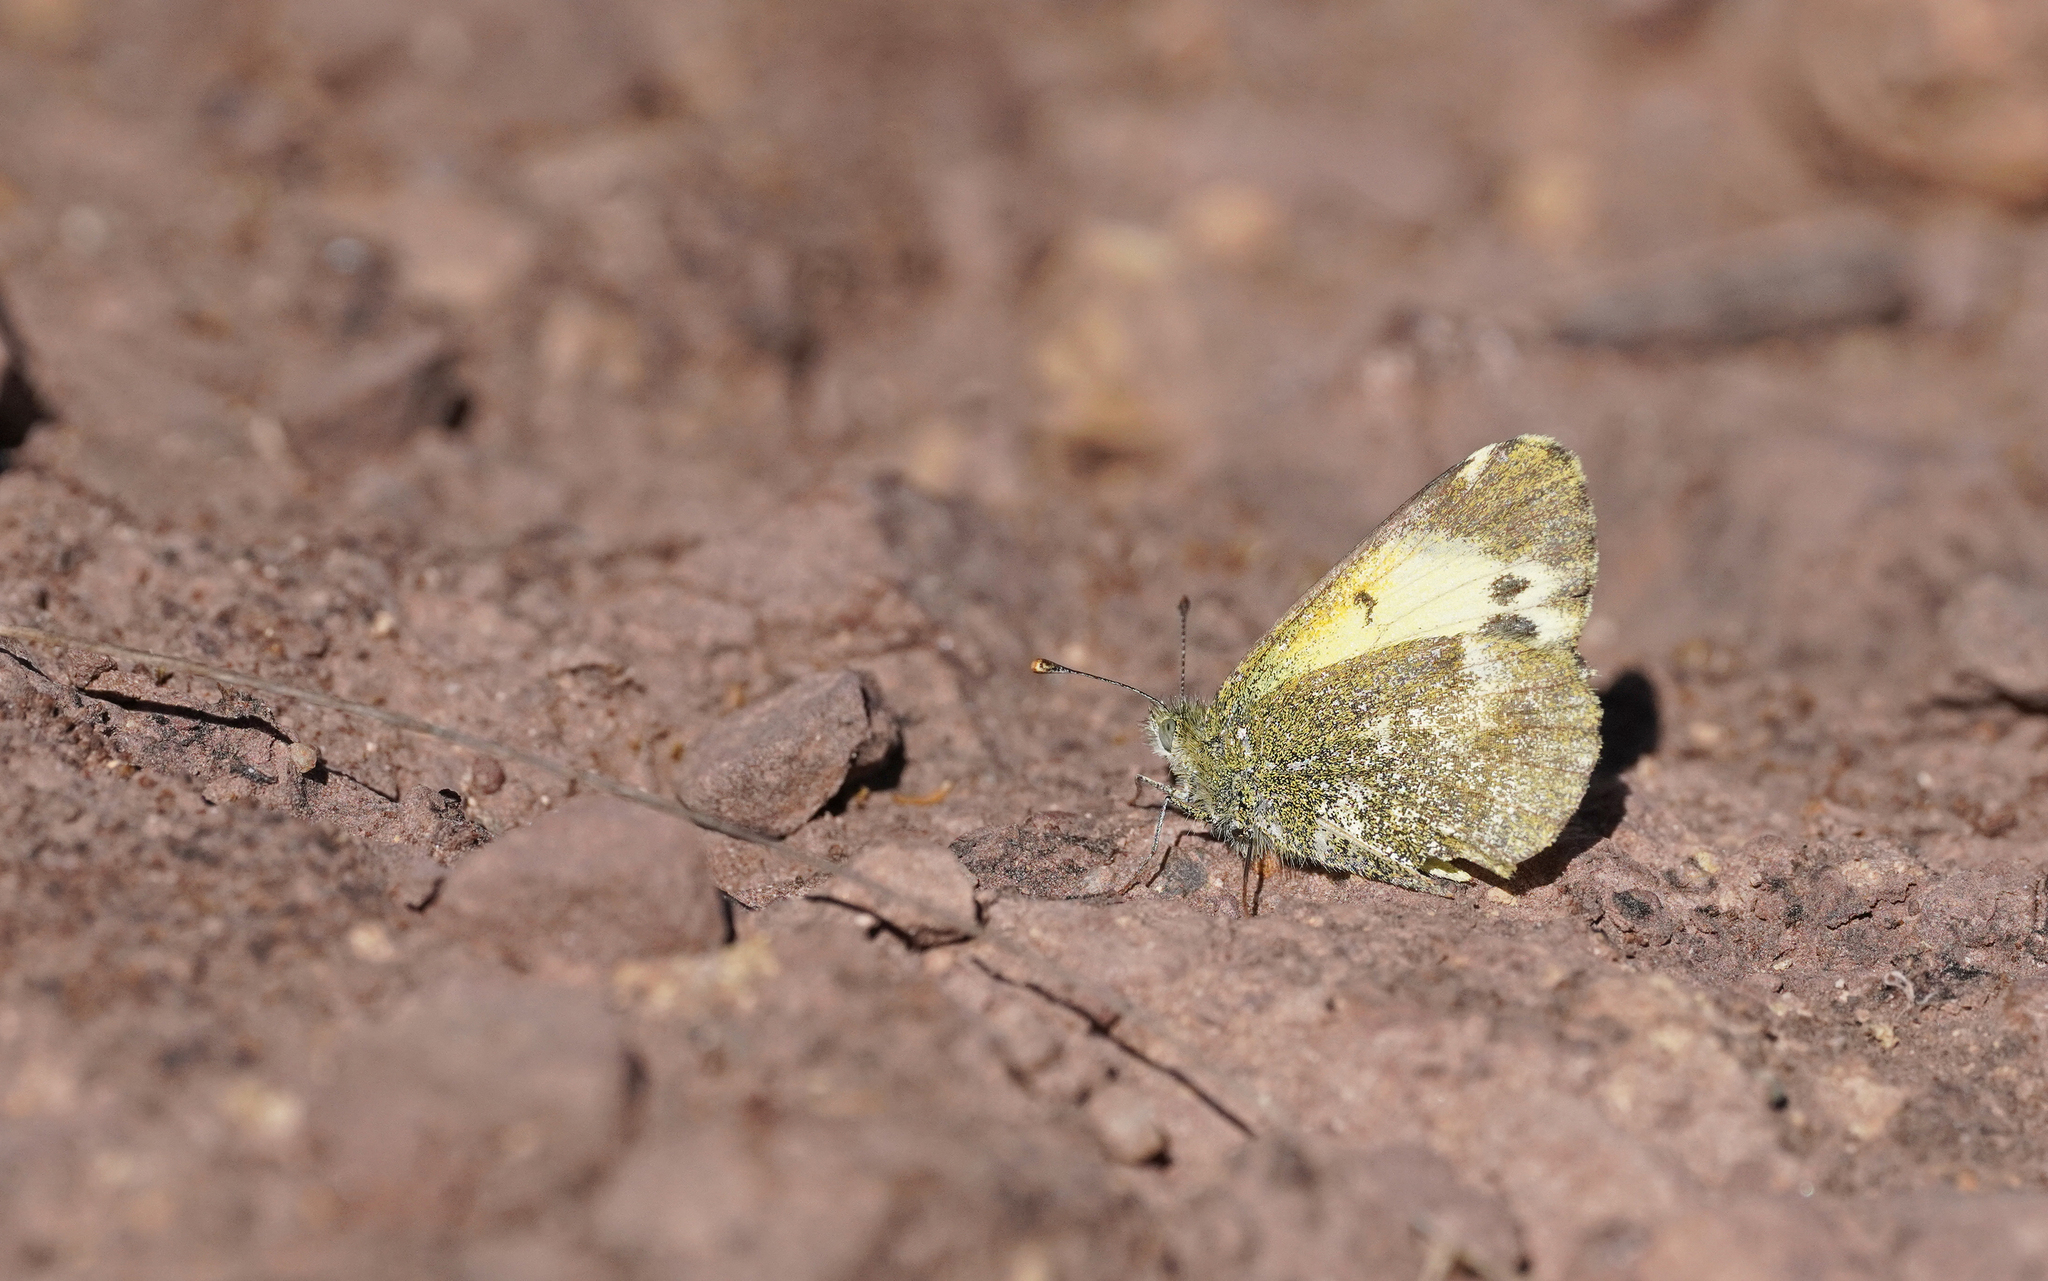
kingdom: Animalia
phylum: Arthropoda
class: Insecta
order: Lepidoptera
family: Pieridae
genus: Nathalis
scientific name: Nathalis iole
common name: Dainty sulphur
